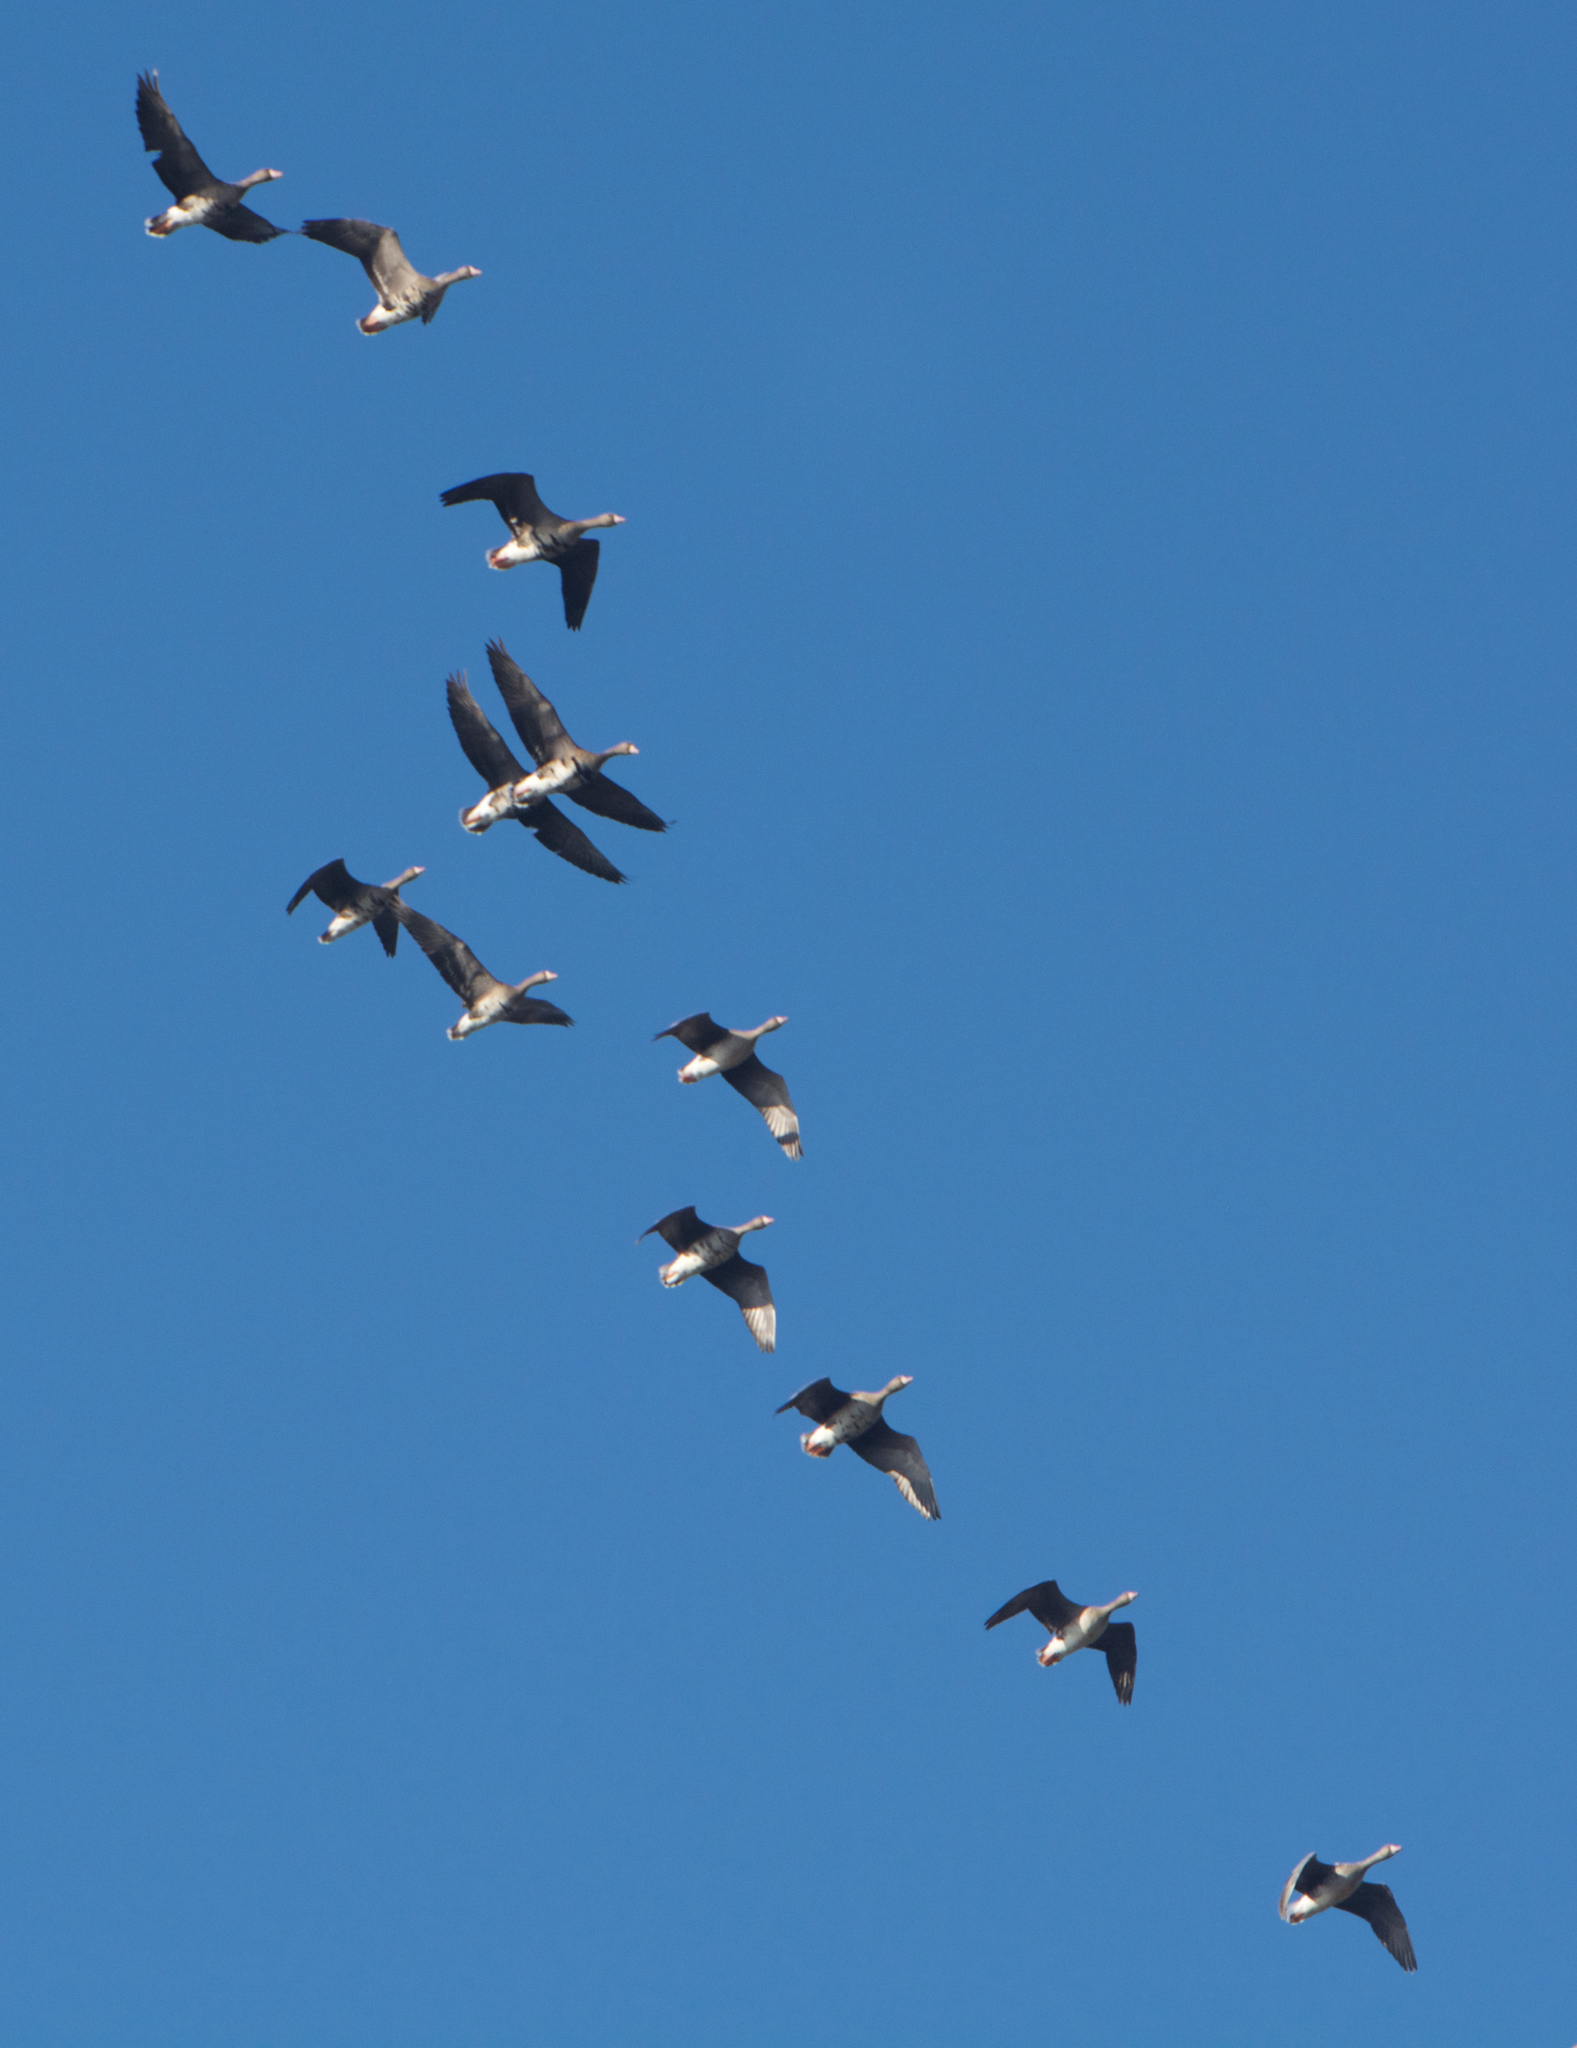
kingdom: Animalia
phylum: Chordata
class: Aves
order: Anseriformes
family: Anatidae
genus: Anser
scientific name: Anser albifrons
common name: Greater white-fronted goose
